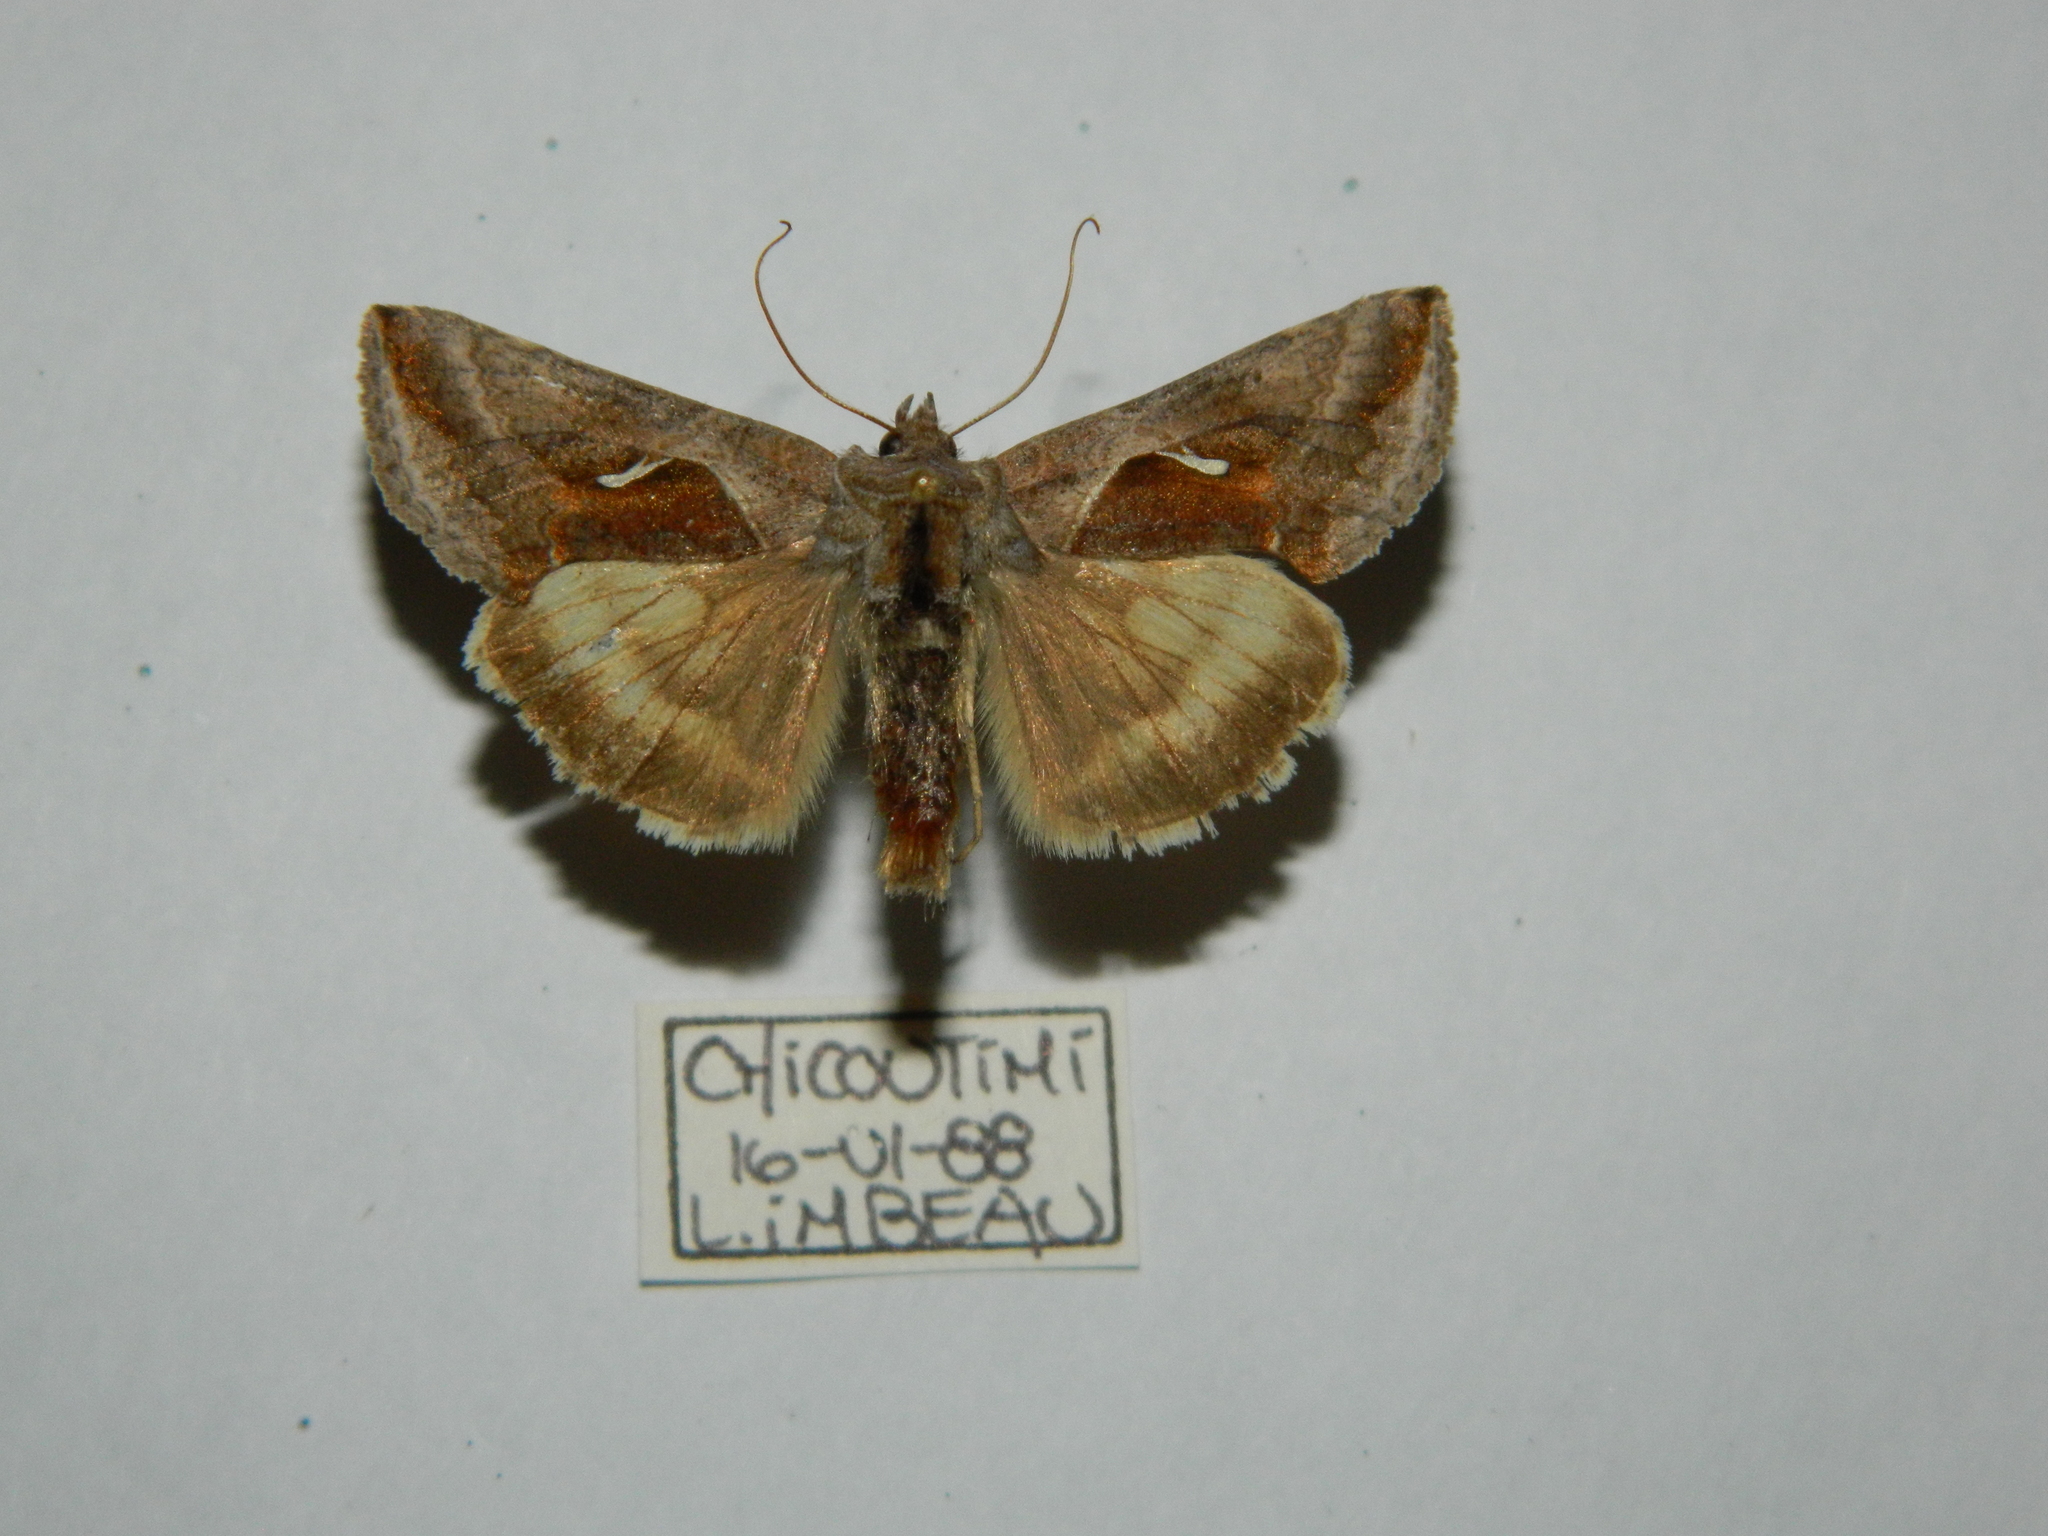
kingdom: Animalia
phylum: Arthropoda
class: Insecta
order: Lepidoptera
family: Noctuidae
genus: Anagrapha
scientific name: Anagrapha falcifera
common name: Celery looper
